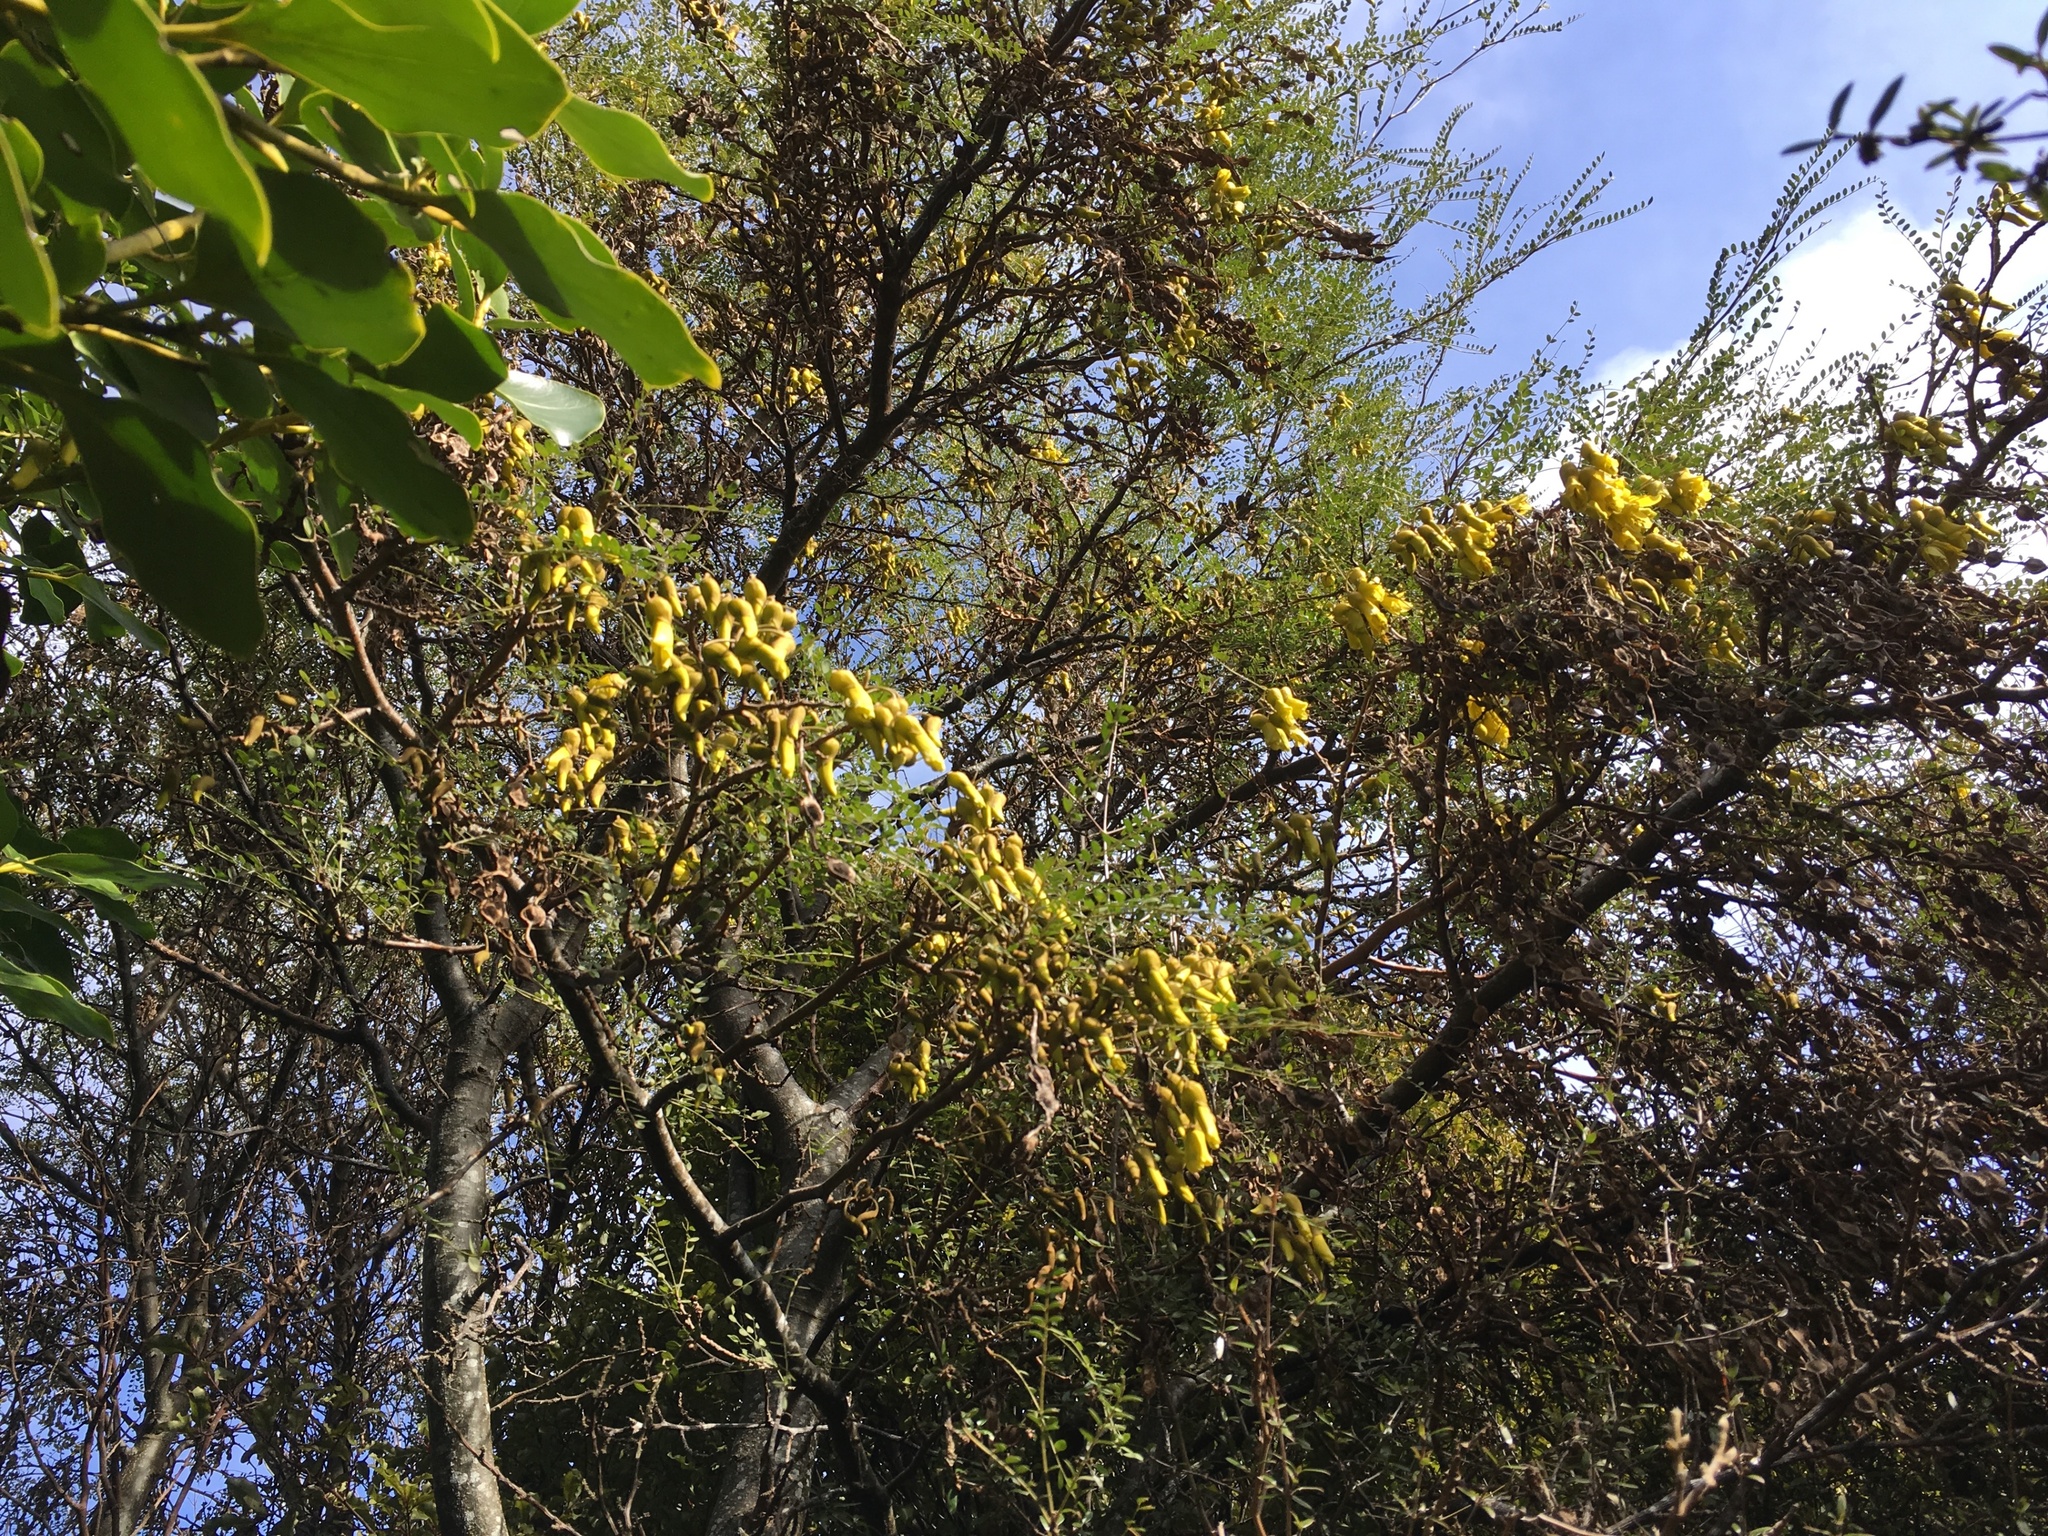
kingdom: Plantae
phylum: Tracheophyta
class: Magnoliopsida
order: Fabales
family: Fabaceae
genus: Sophora
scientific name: Sophora microphylla
